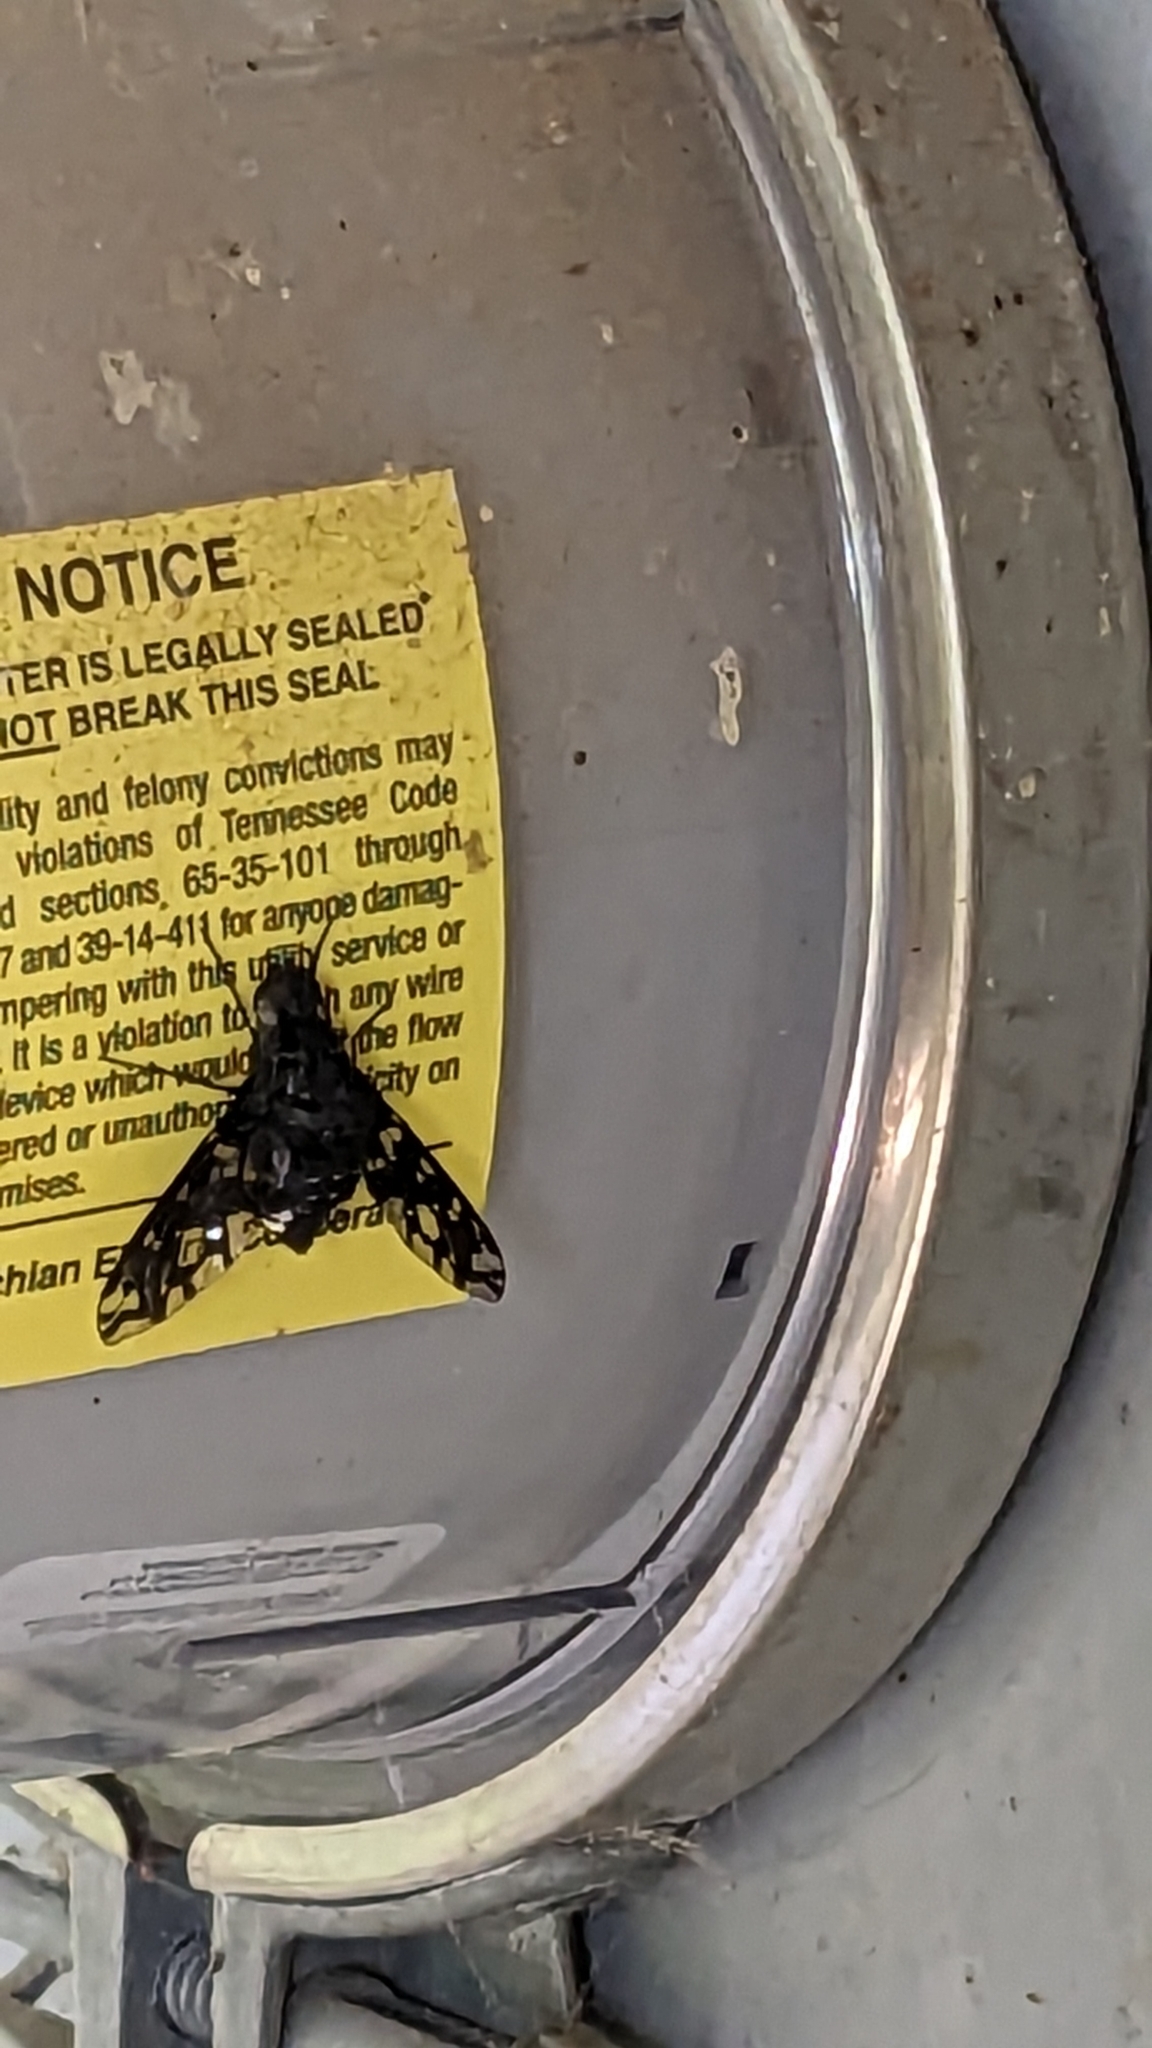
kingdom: Animalia
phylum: Arthropoda
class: Insecta
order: Diptera
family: Bombyliidae
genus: Xenox
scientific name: Xenox tigrinus
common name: Tiger bee fly
